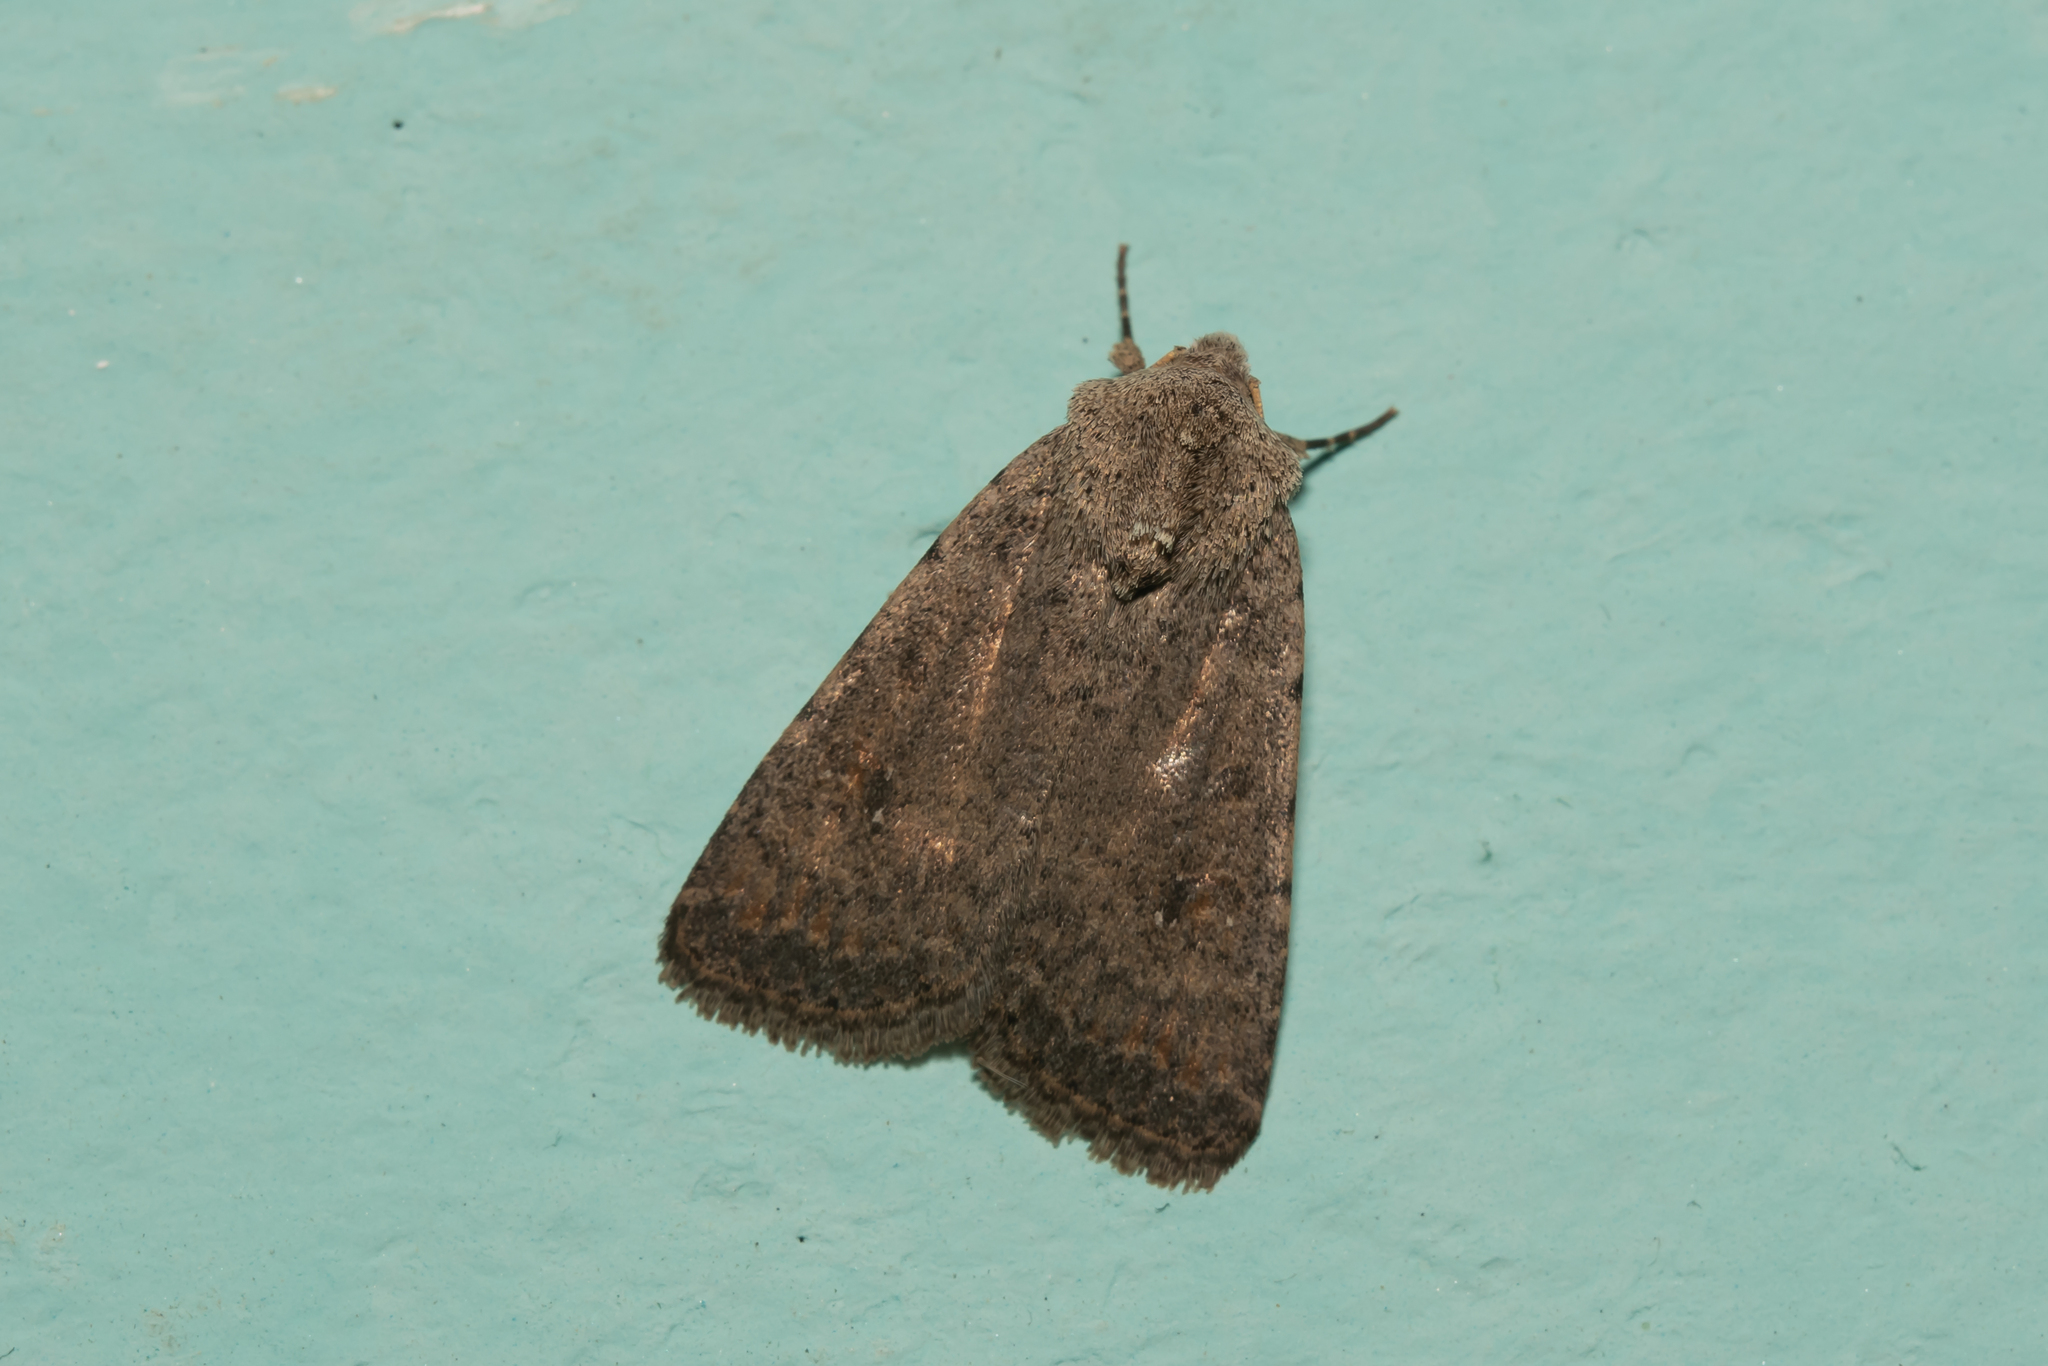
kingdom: Animalia
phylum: Arthropoda
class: Insecta
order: Lepidoptera
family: Noctuidae
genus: Caradrina
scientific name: Caradrina clavipalpis
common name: Pale mottled willow
